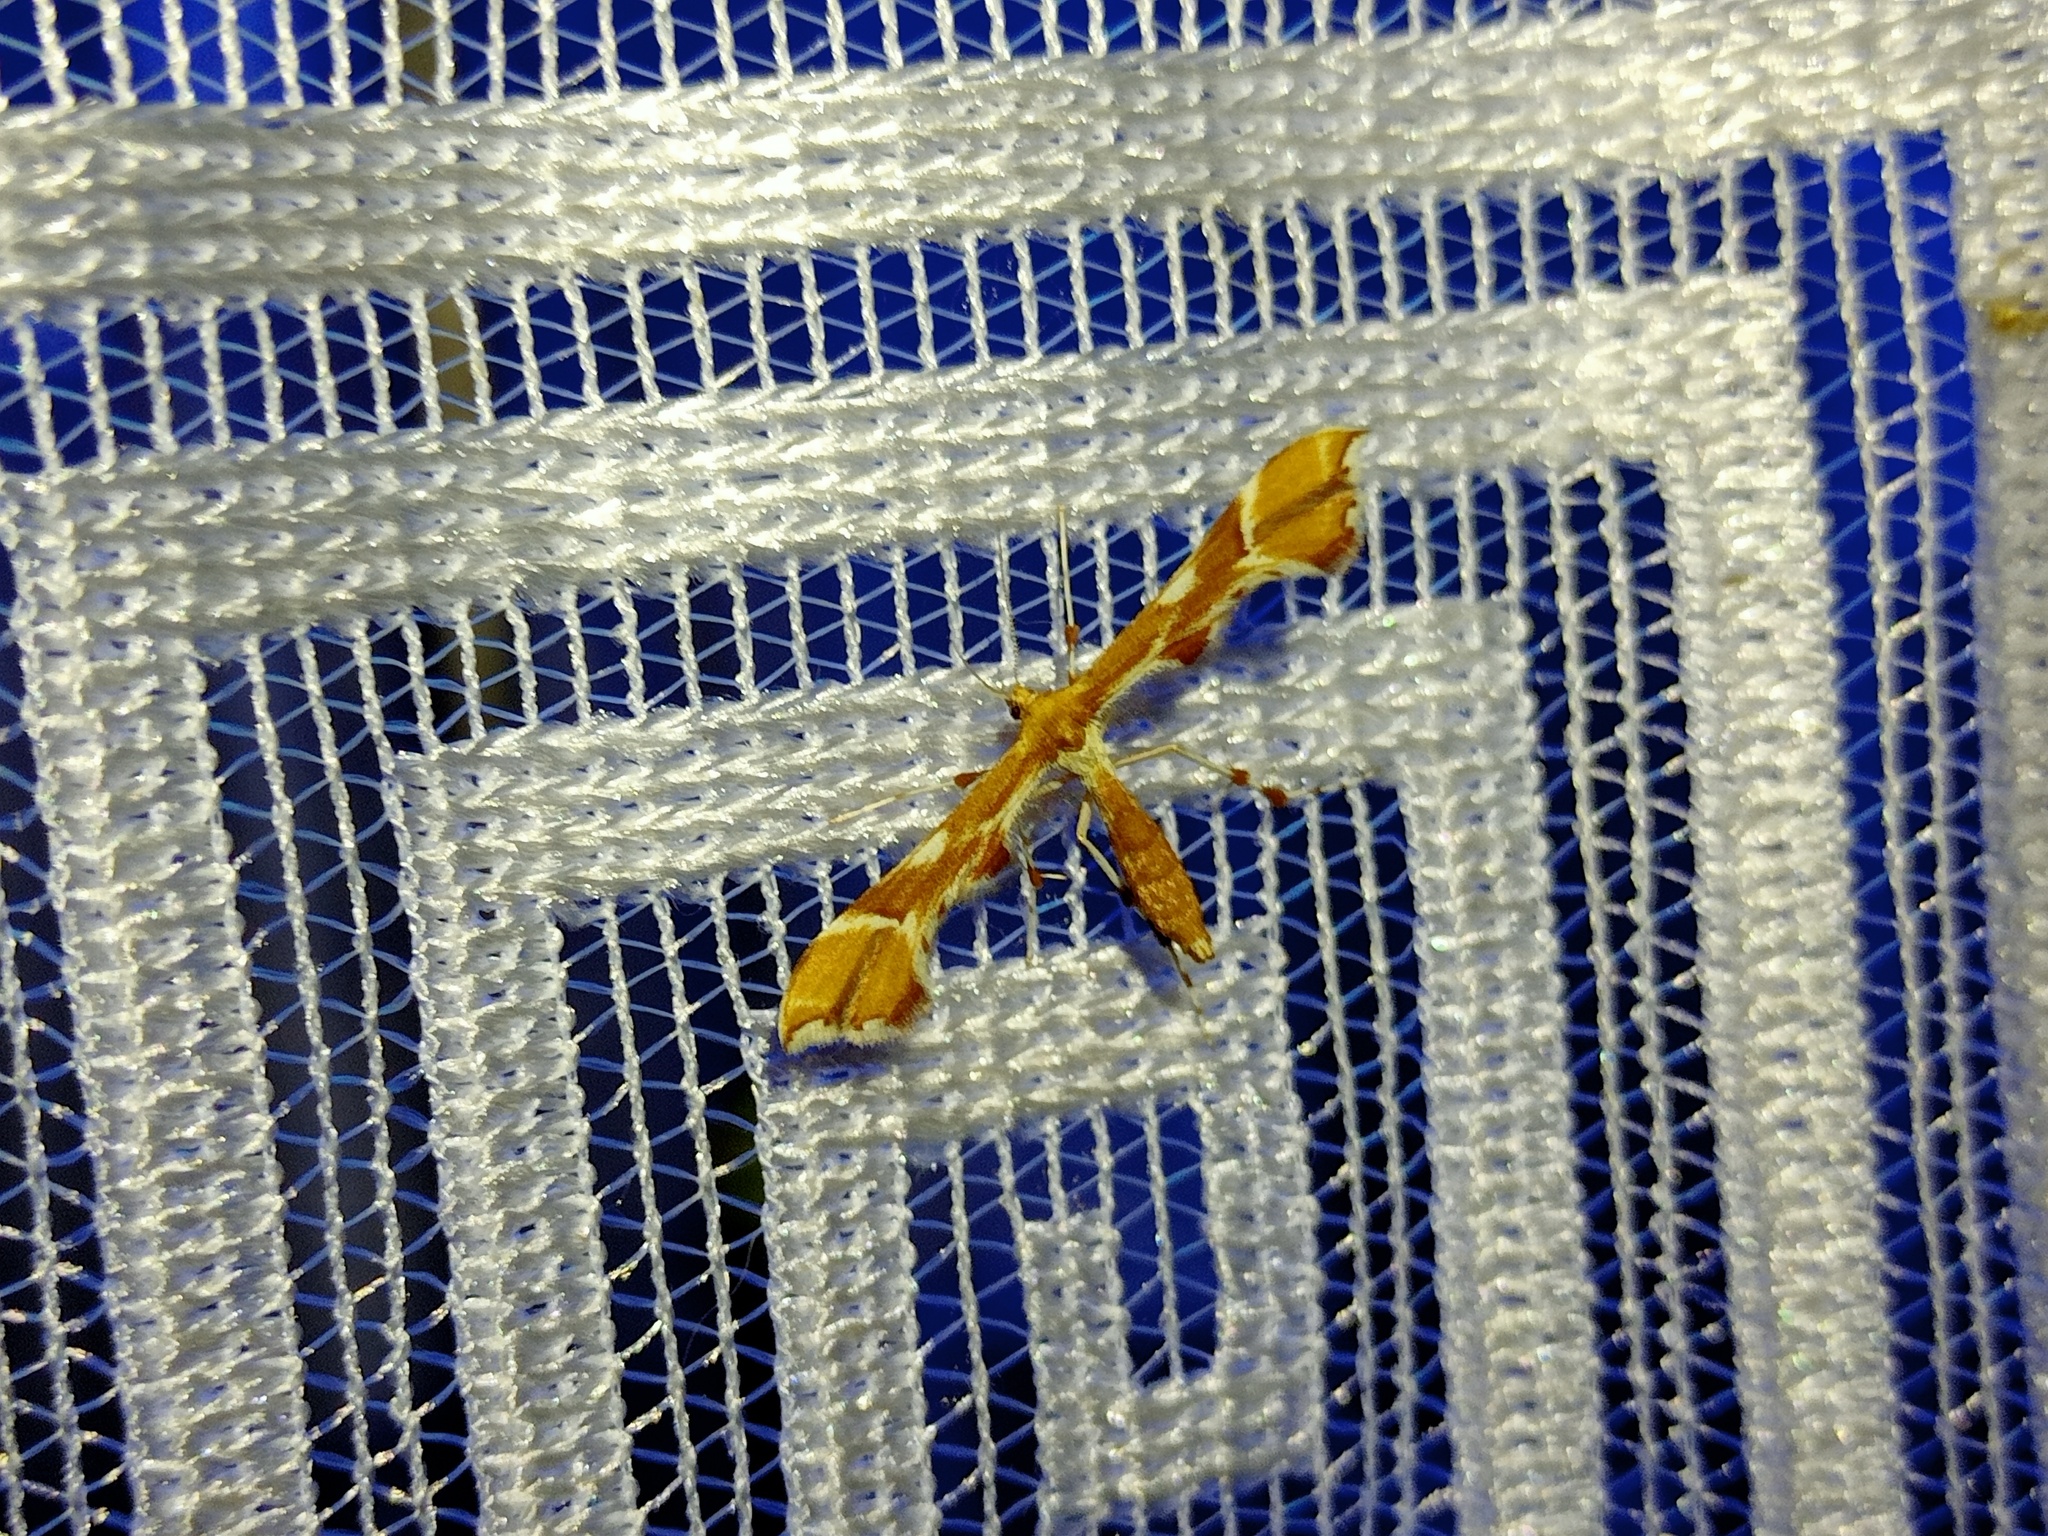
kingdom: Animalia
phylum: Arthropoda
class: Insecta
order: Lepidoptera
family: Pterophoridae
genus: Cnaemidophorus
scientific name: Cnaemidophorus rhododactyla
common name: Rose plume
